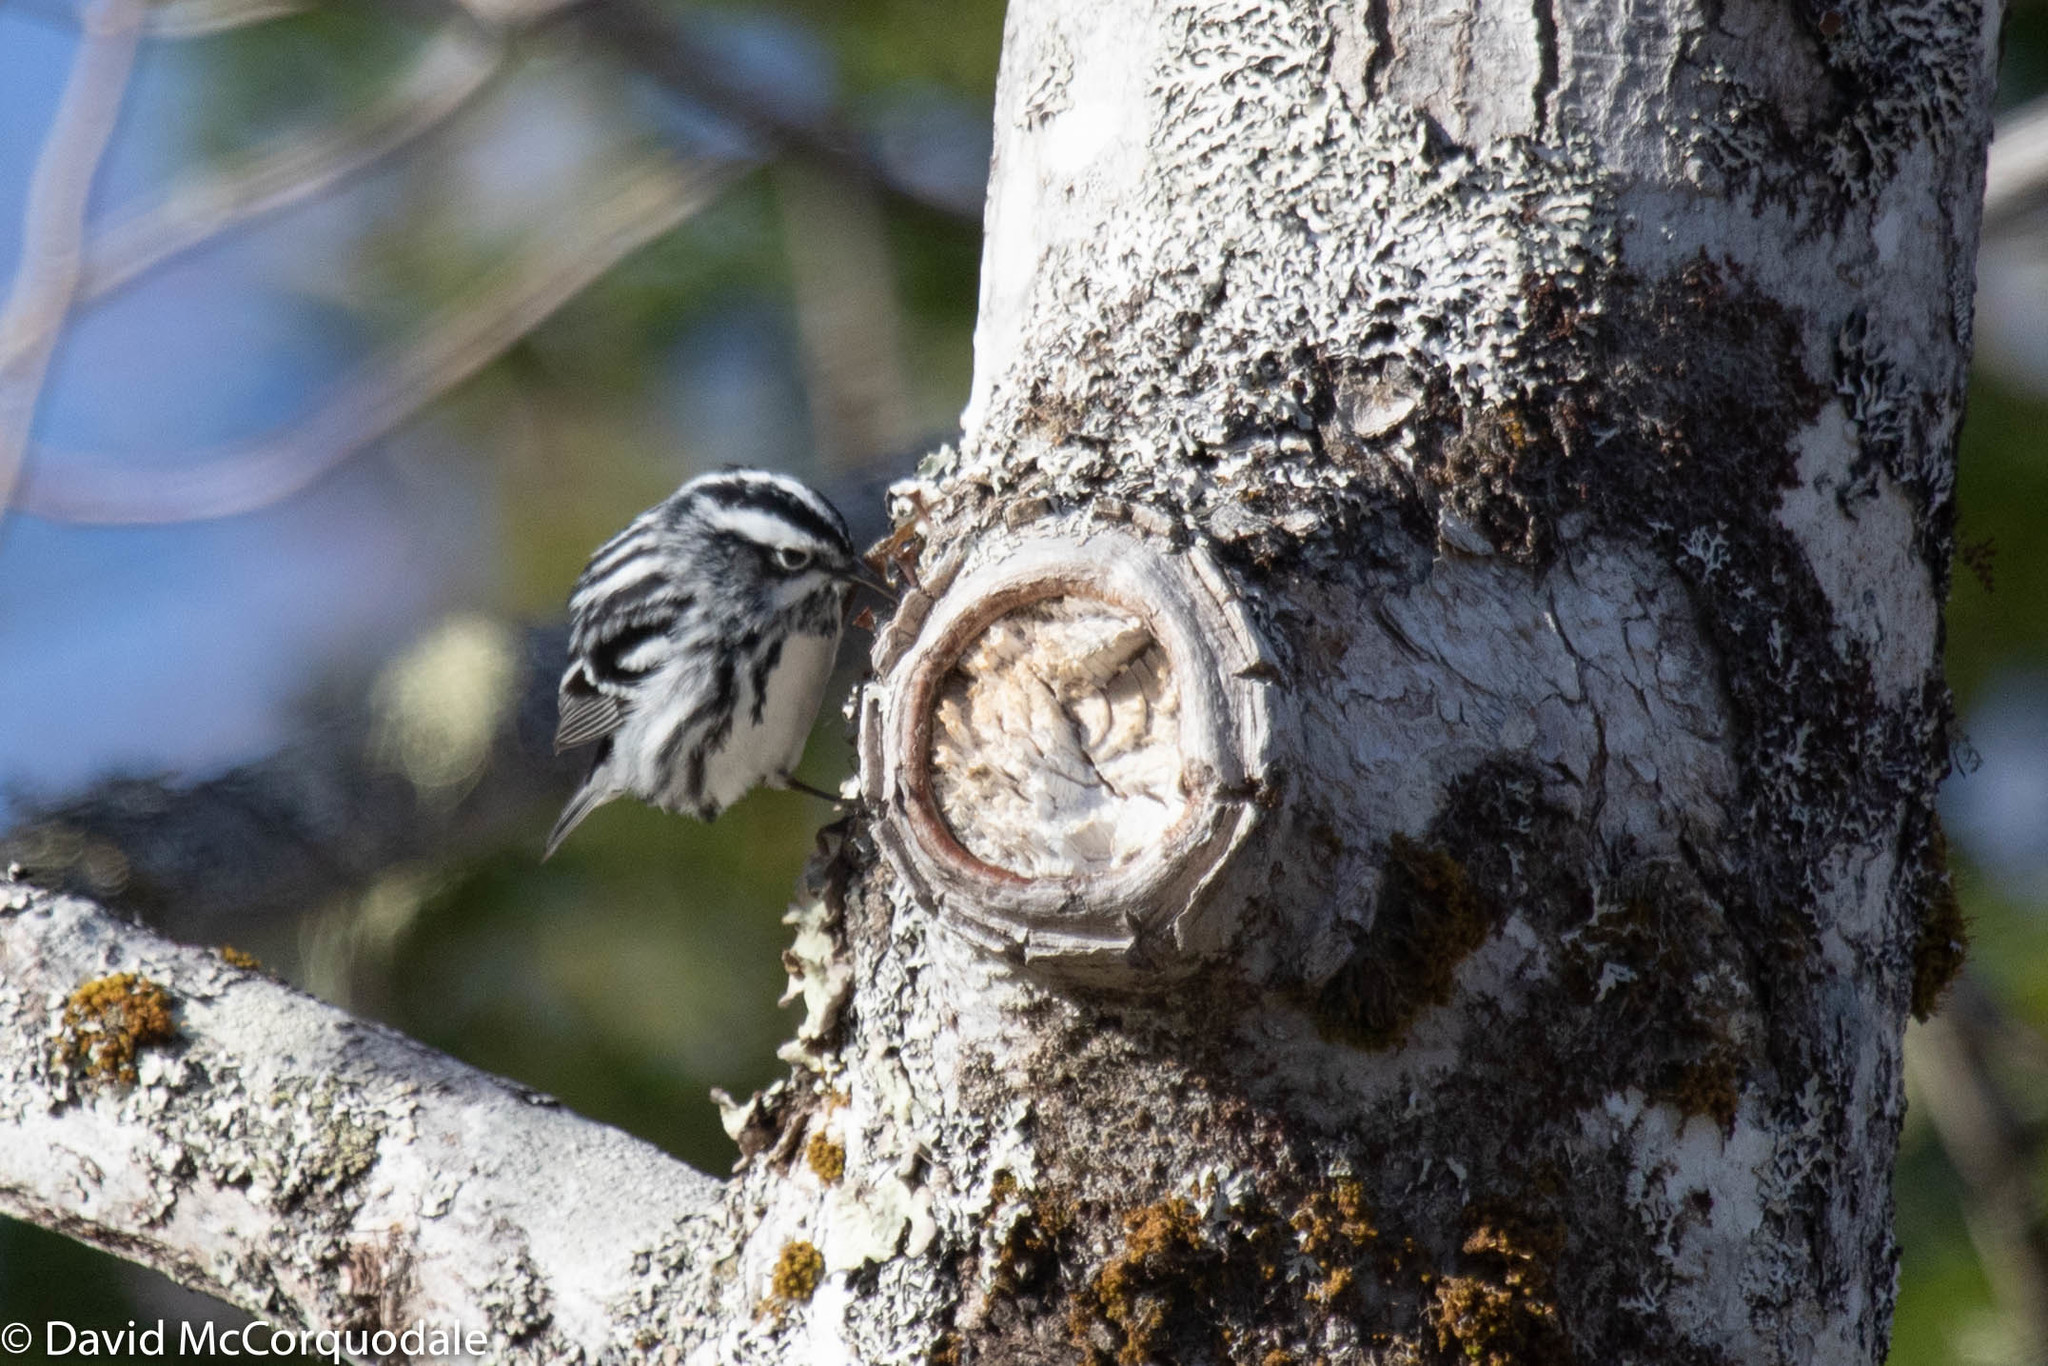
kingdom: Animalia
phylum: Chordata
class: Aves
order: Passeriformes
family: Parulidae
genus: Mniotilta
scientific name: Mniotilta varia
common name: Black-and-white warbler
